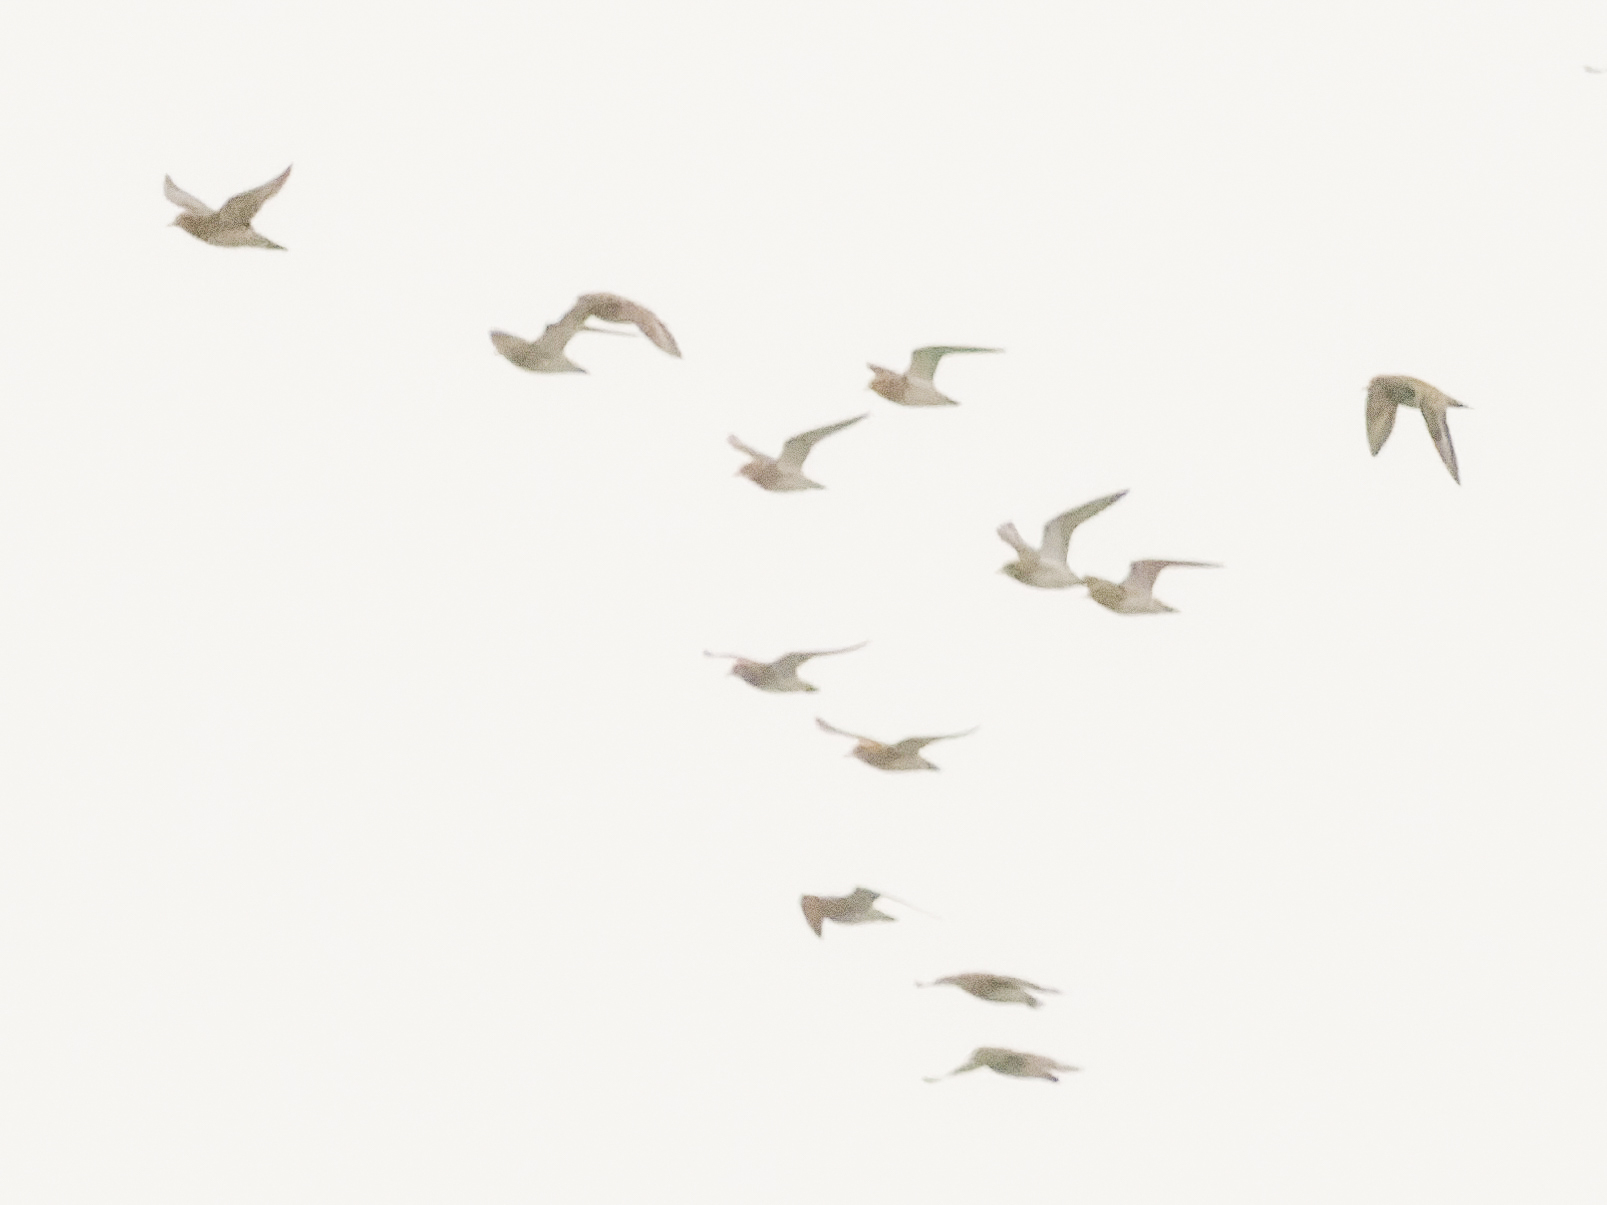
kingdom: Animalia
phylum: Chordata
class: Aves
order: Charadriiformes
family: Charadriidae
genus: Pluvialis
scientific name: Pluvialis apricaria
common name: European golden plover
